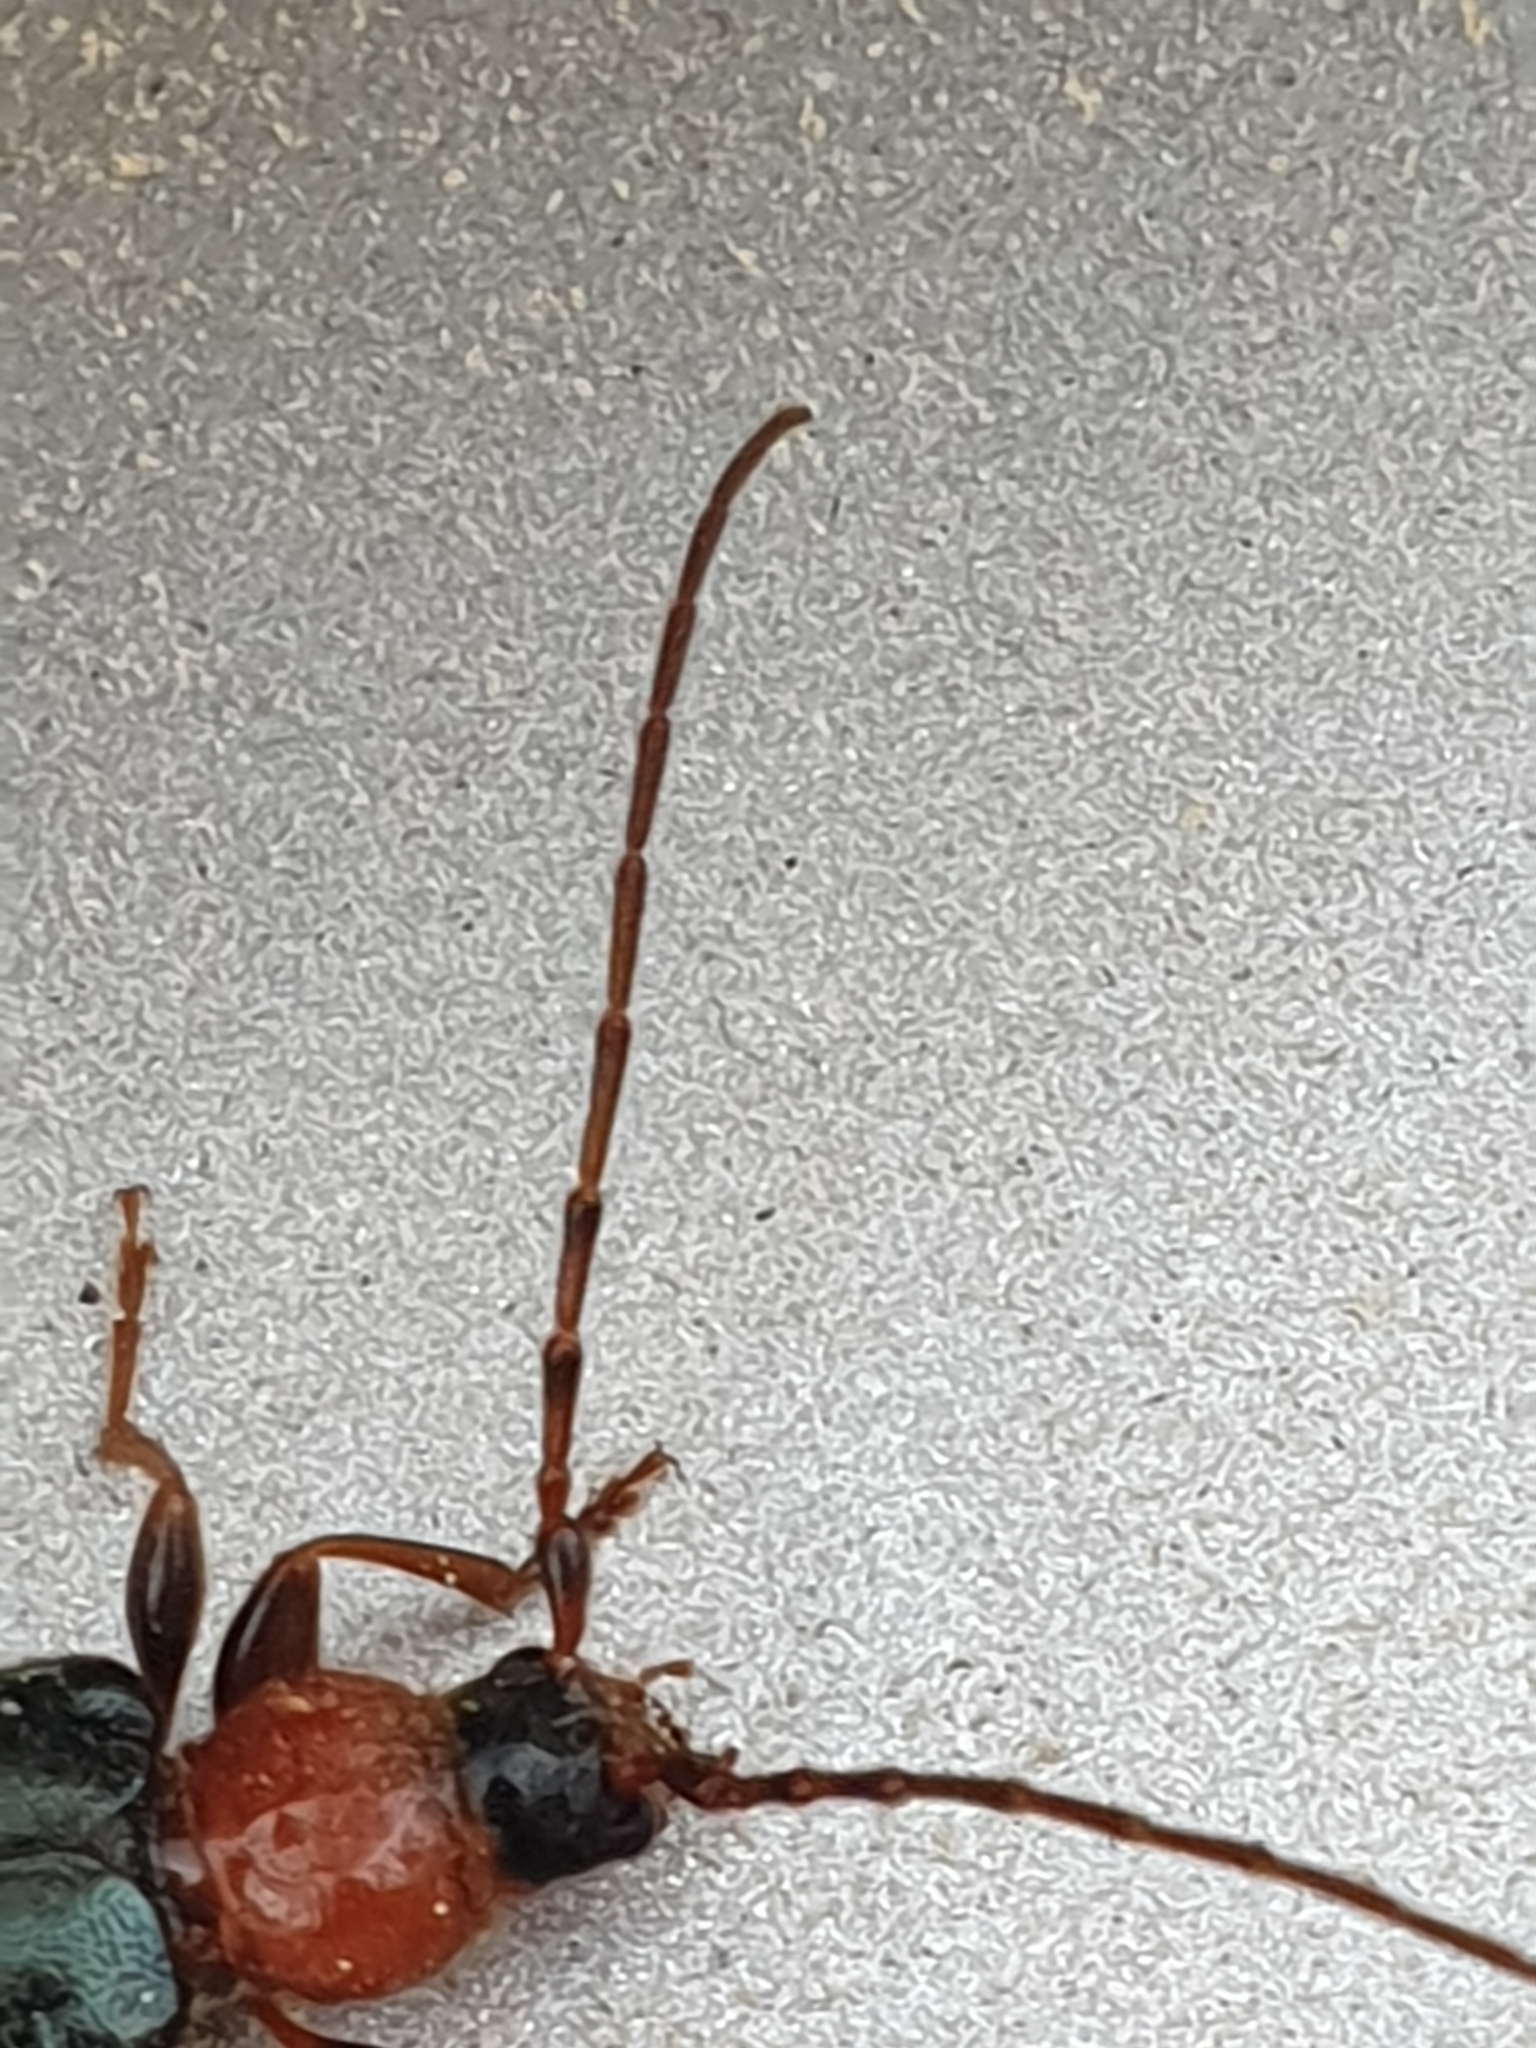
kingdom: Animalia
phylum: Arthropoda
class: Insecta
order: Coleoptera
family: Cerambycidae
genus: Phymatodes
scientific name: Phymatodes testaceus
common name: Long-horned beetle
